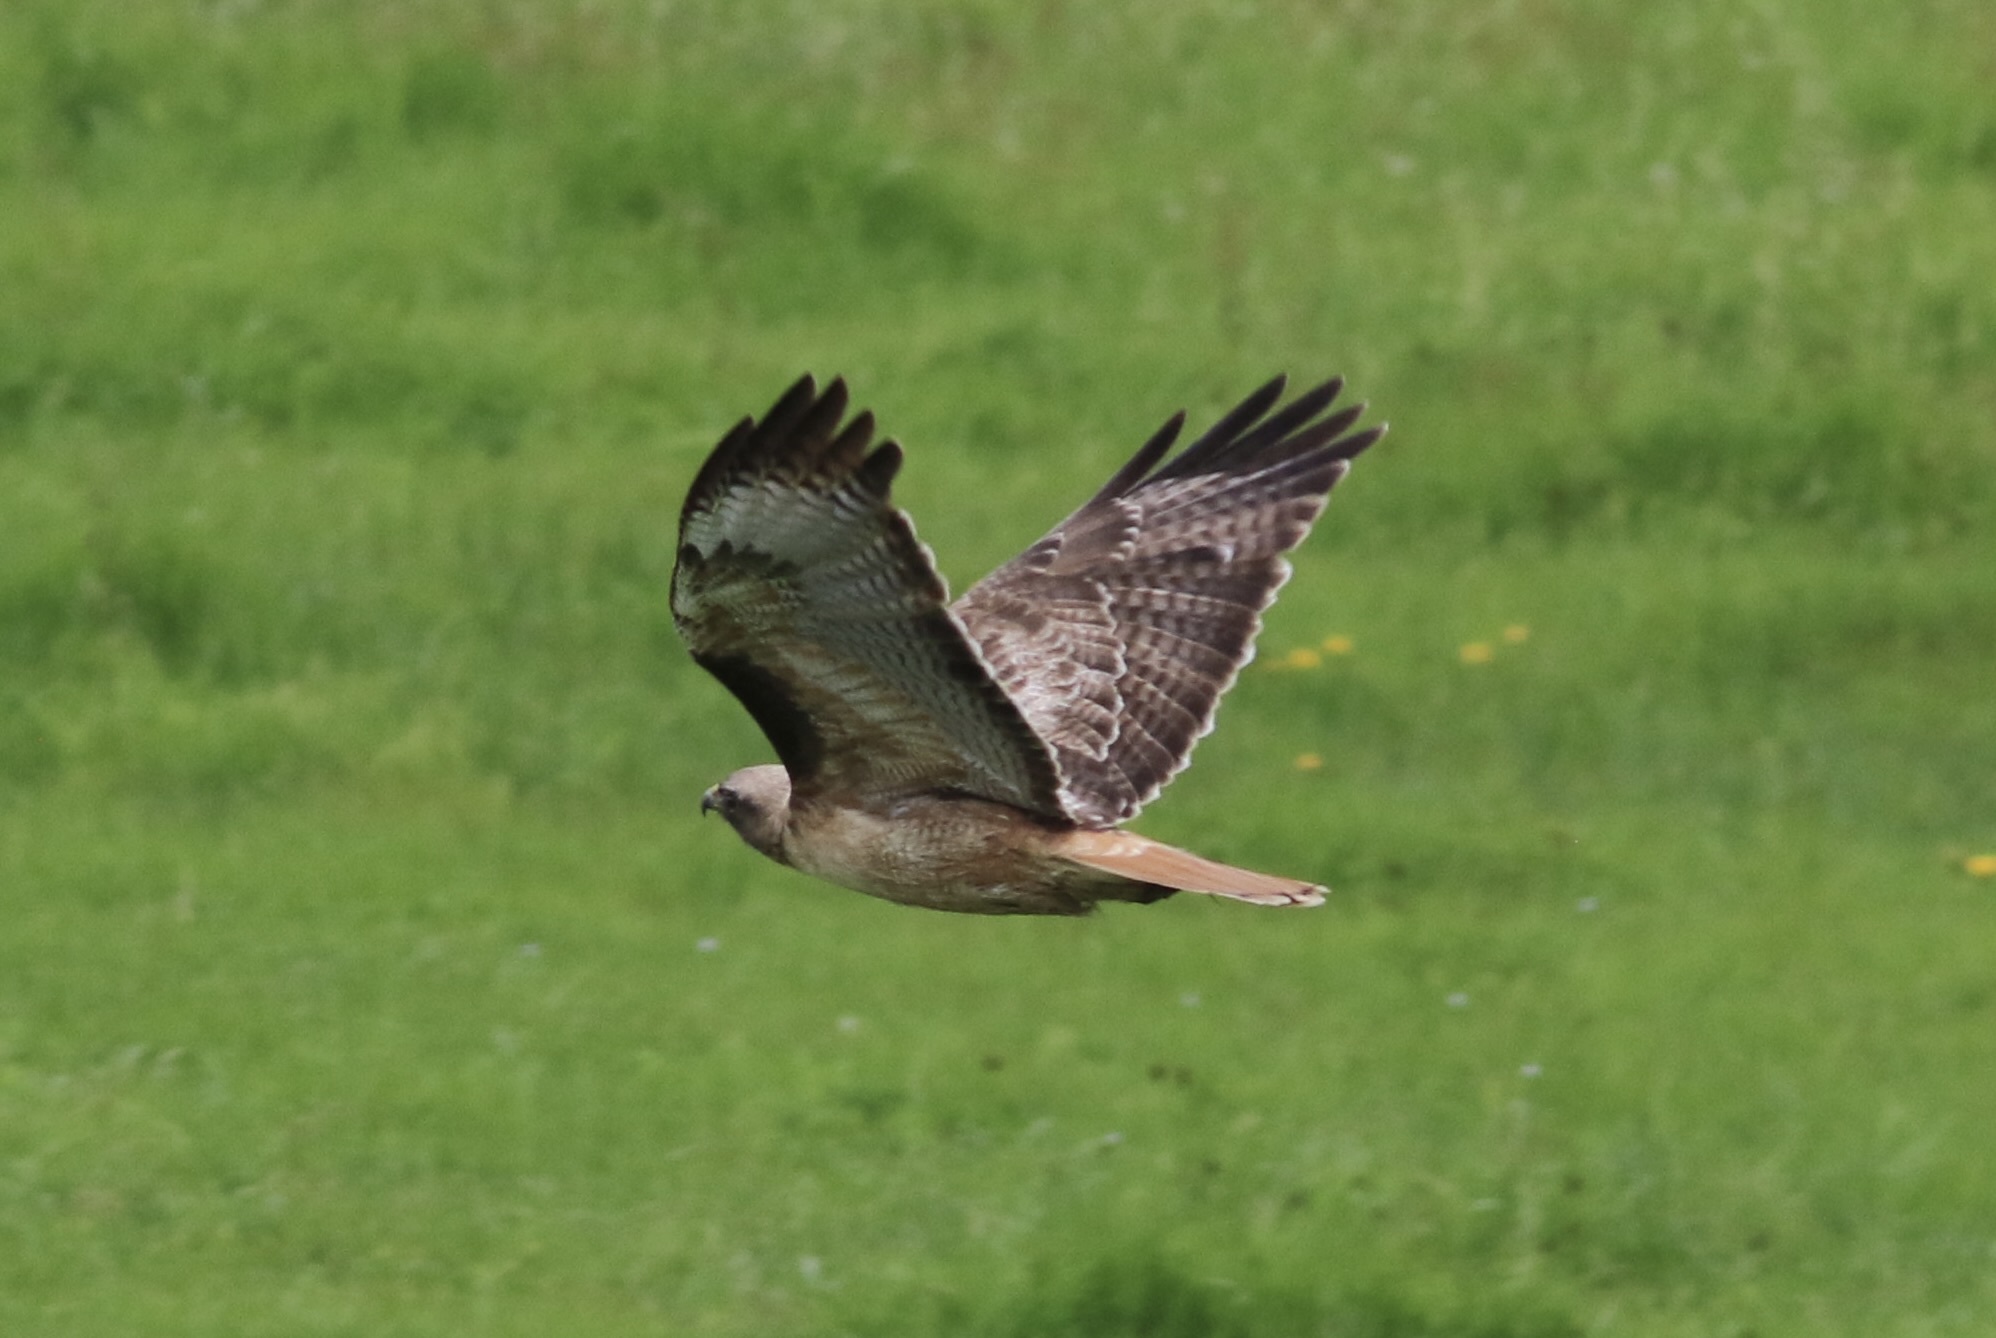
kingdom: Animalia
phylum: Chordata
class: Aves
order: Accipitriformes
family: Accipitridae
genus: Buteo
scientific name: Buteo jamaicensis
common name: Red-tailed hawk
